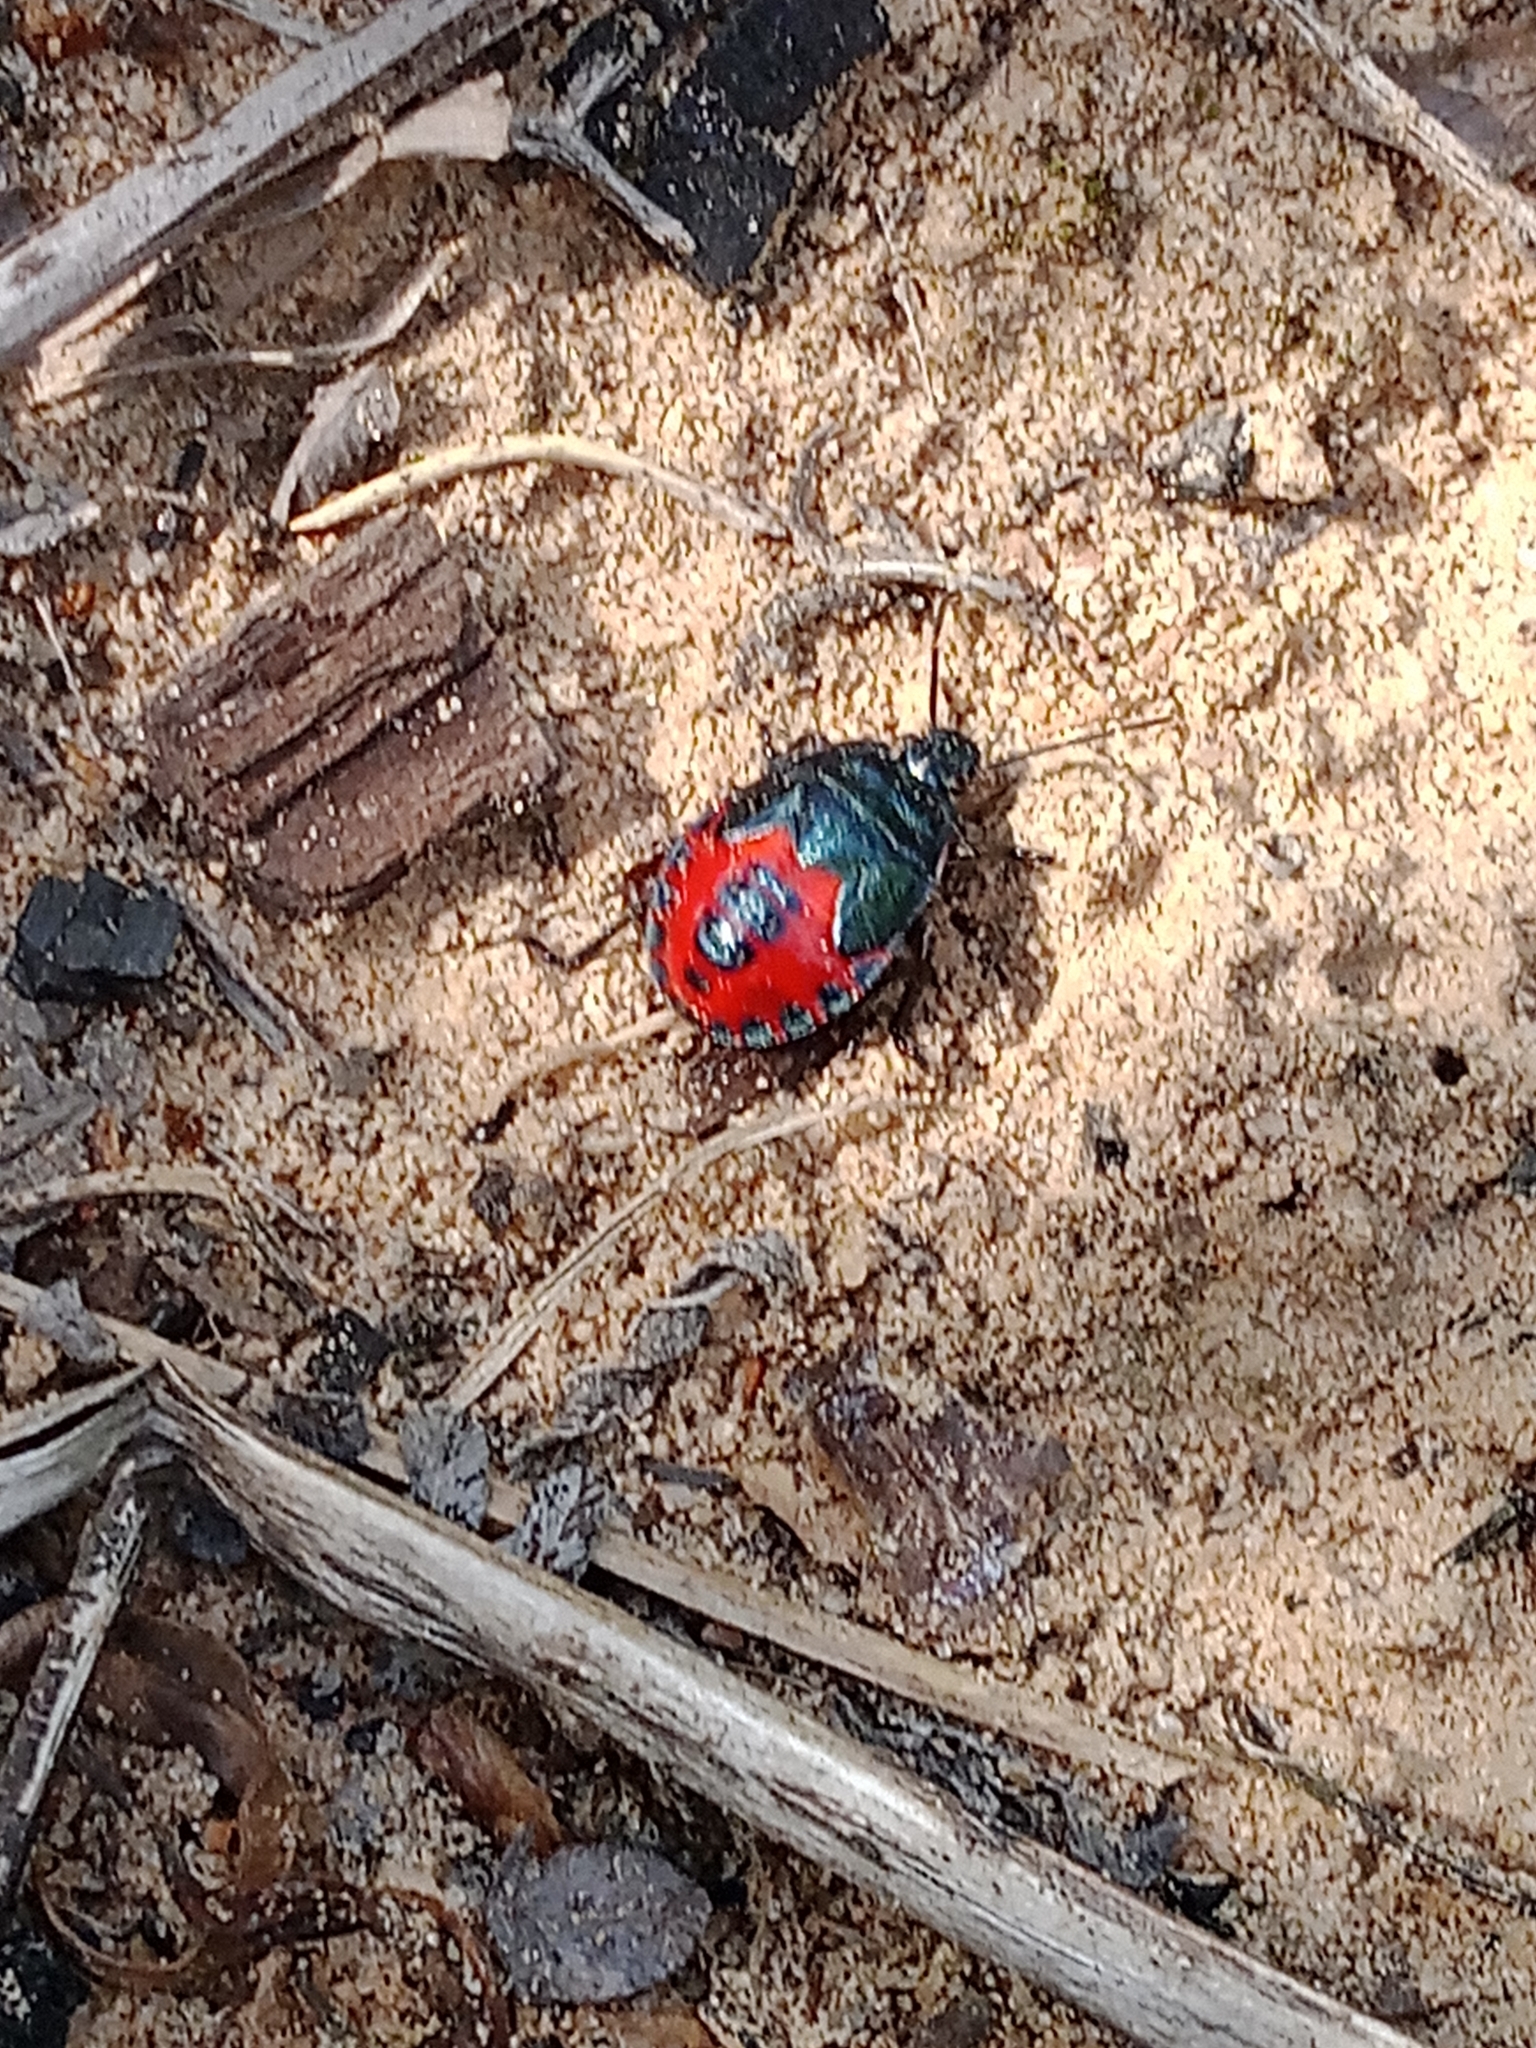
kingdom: Animalia
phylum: Arthropoda
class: Insecta
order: Hemiptera
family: Pentatomidae
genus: Jalla
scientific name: Jalla dumosa
